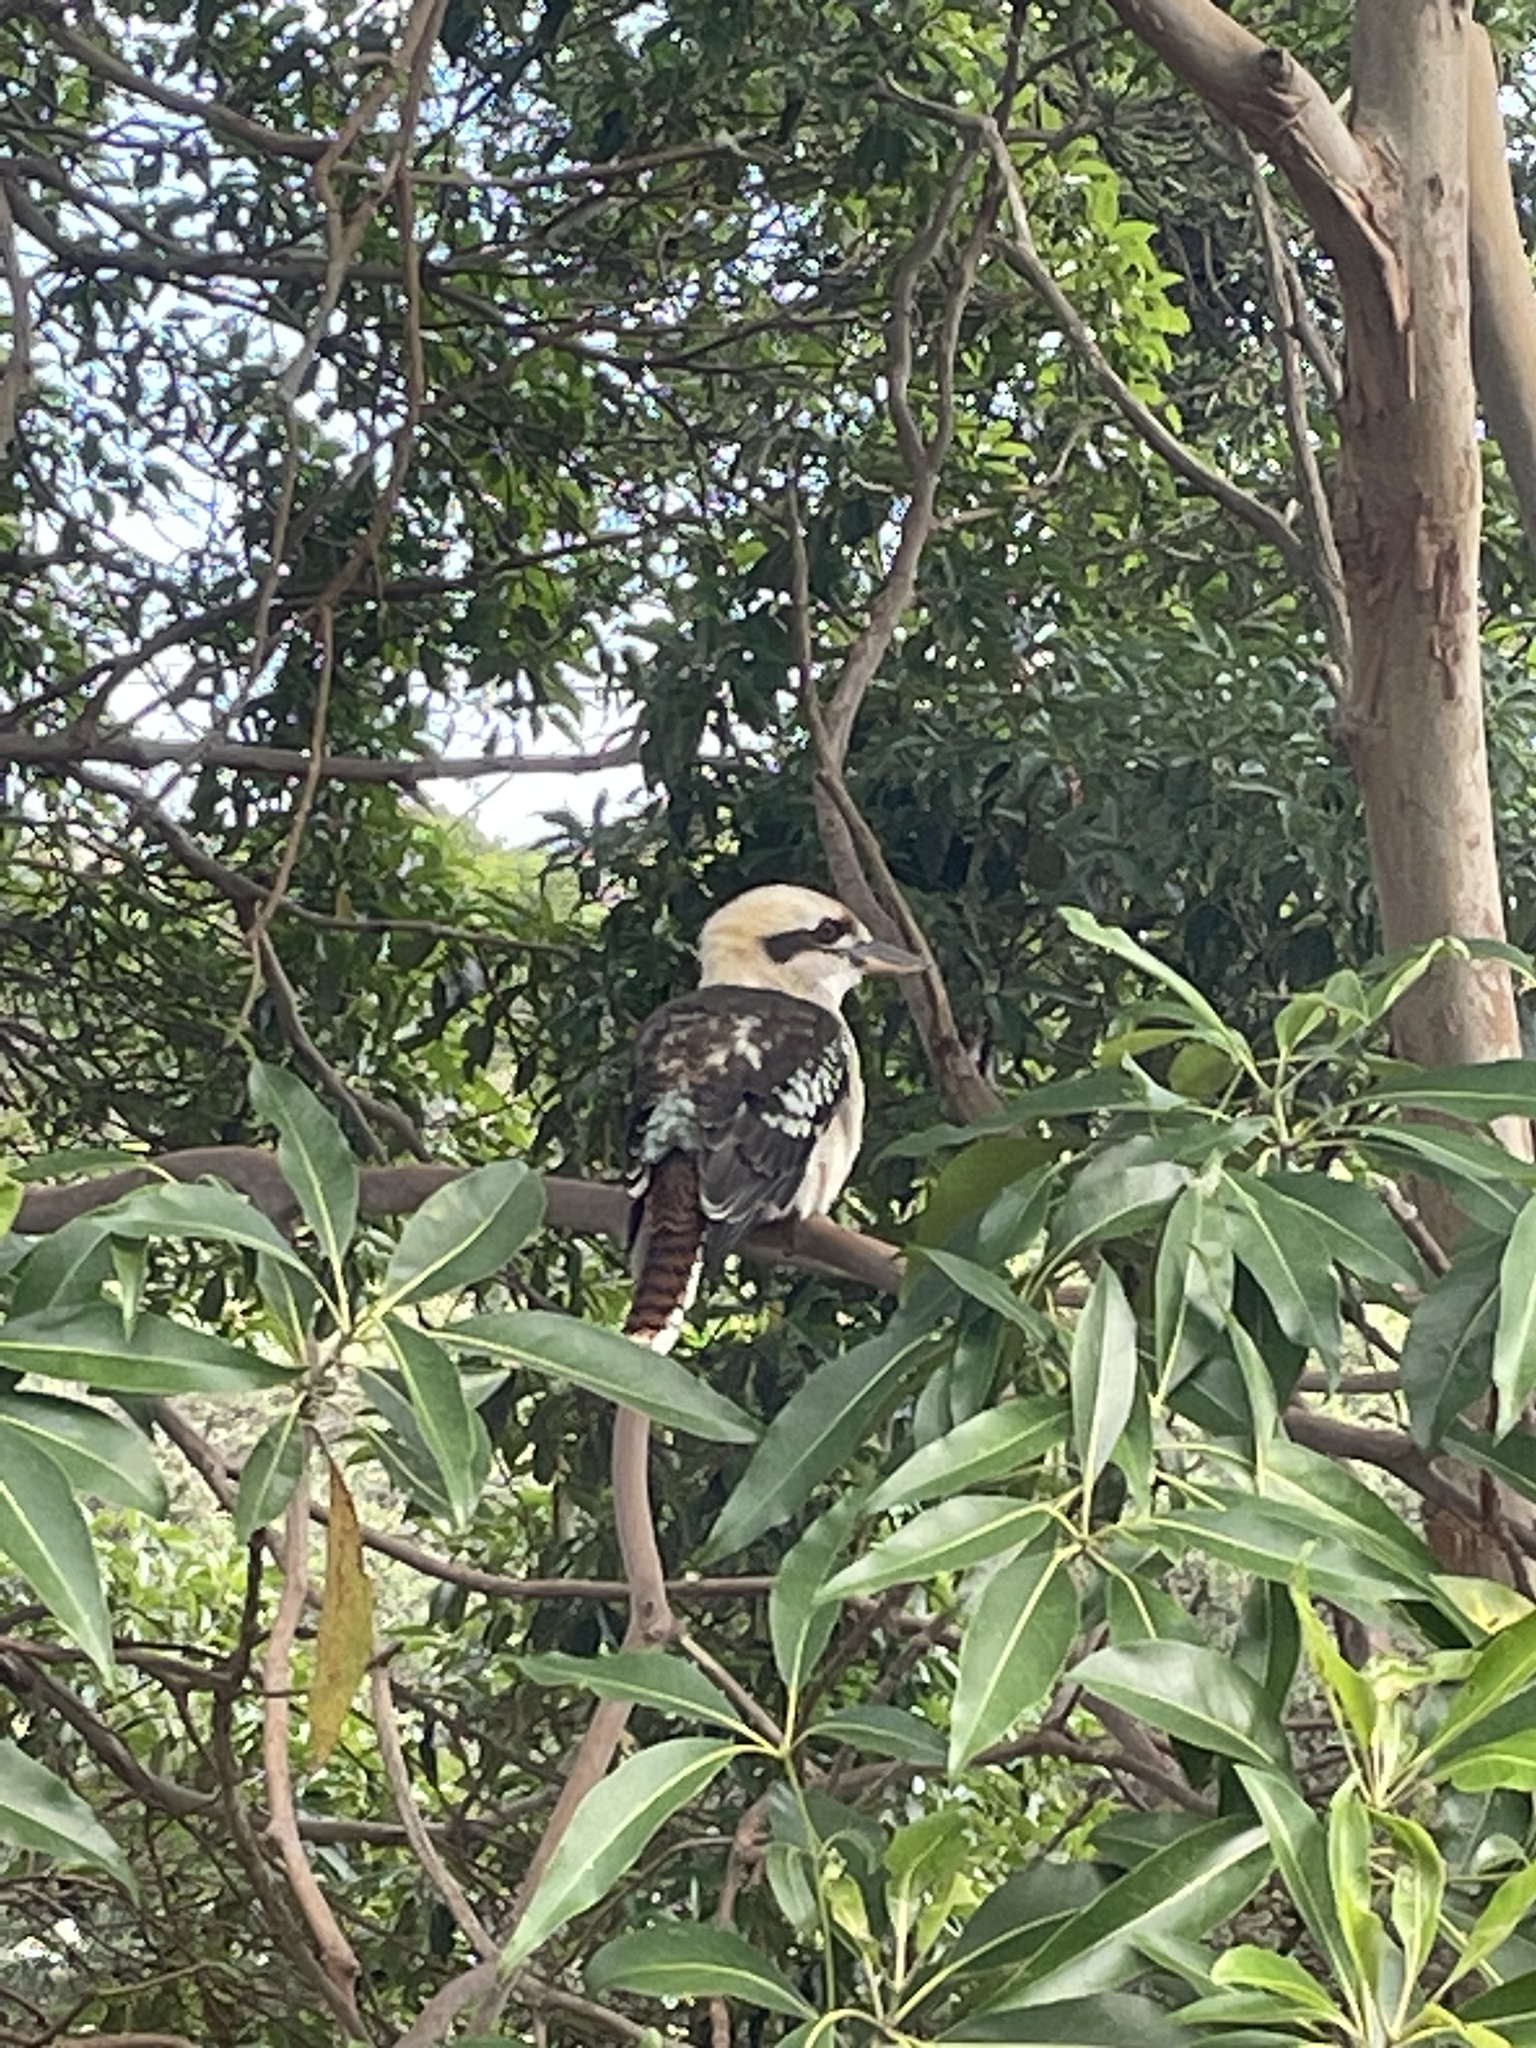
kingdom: Animalia
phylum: Chordata
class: Aves
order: Coraciiformes
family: Alcedinidae
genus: Dacelo
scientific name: Dacelo novaeguineae
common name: Laughing kookaburra
